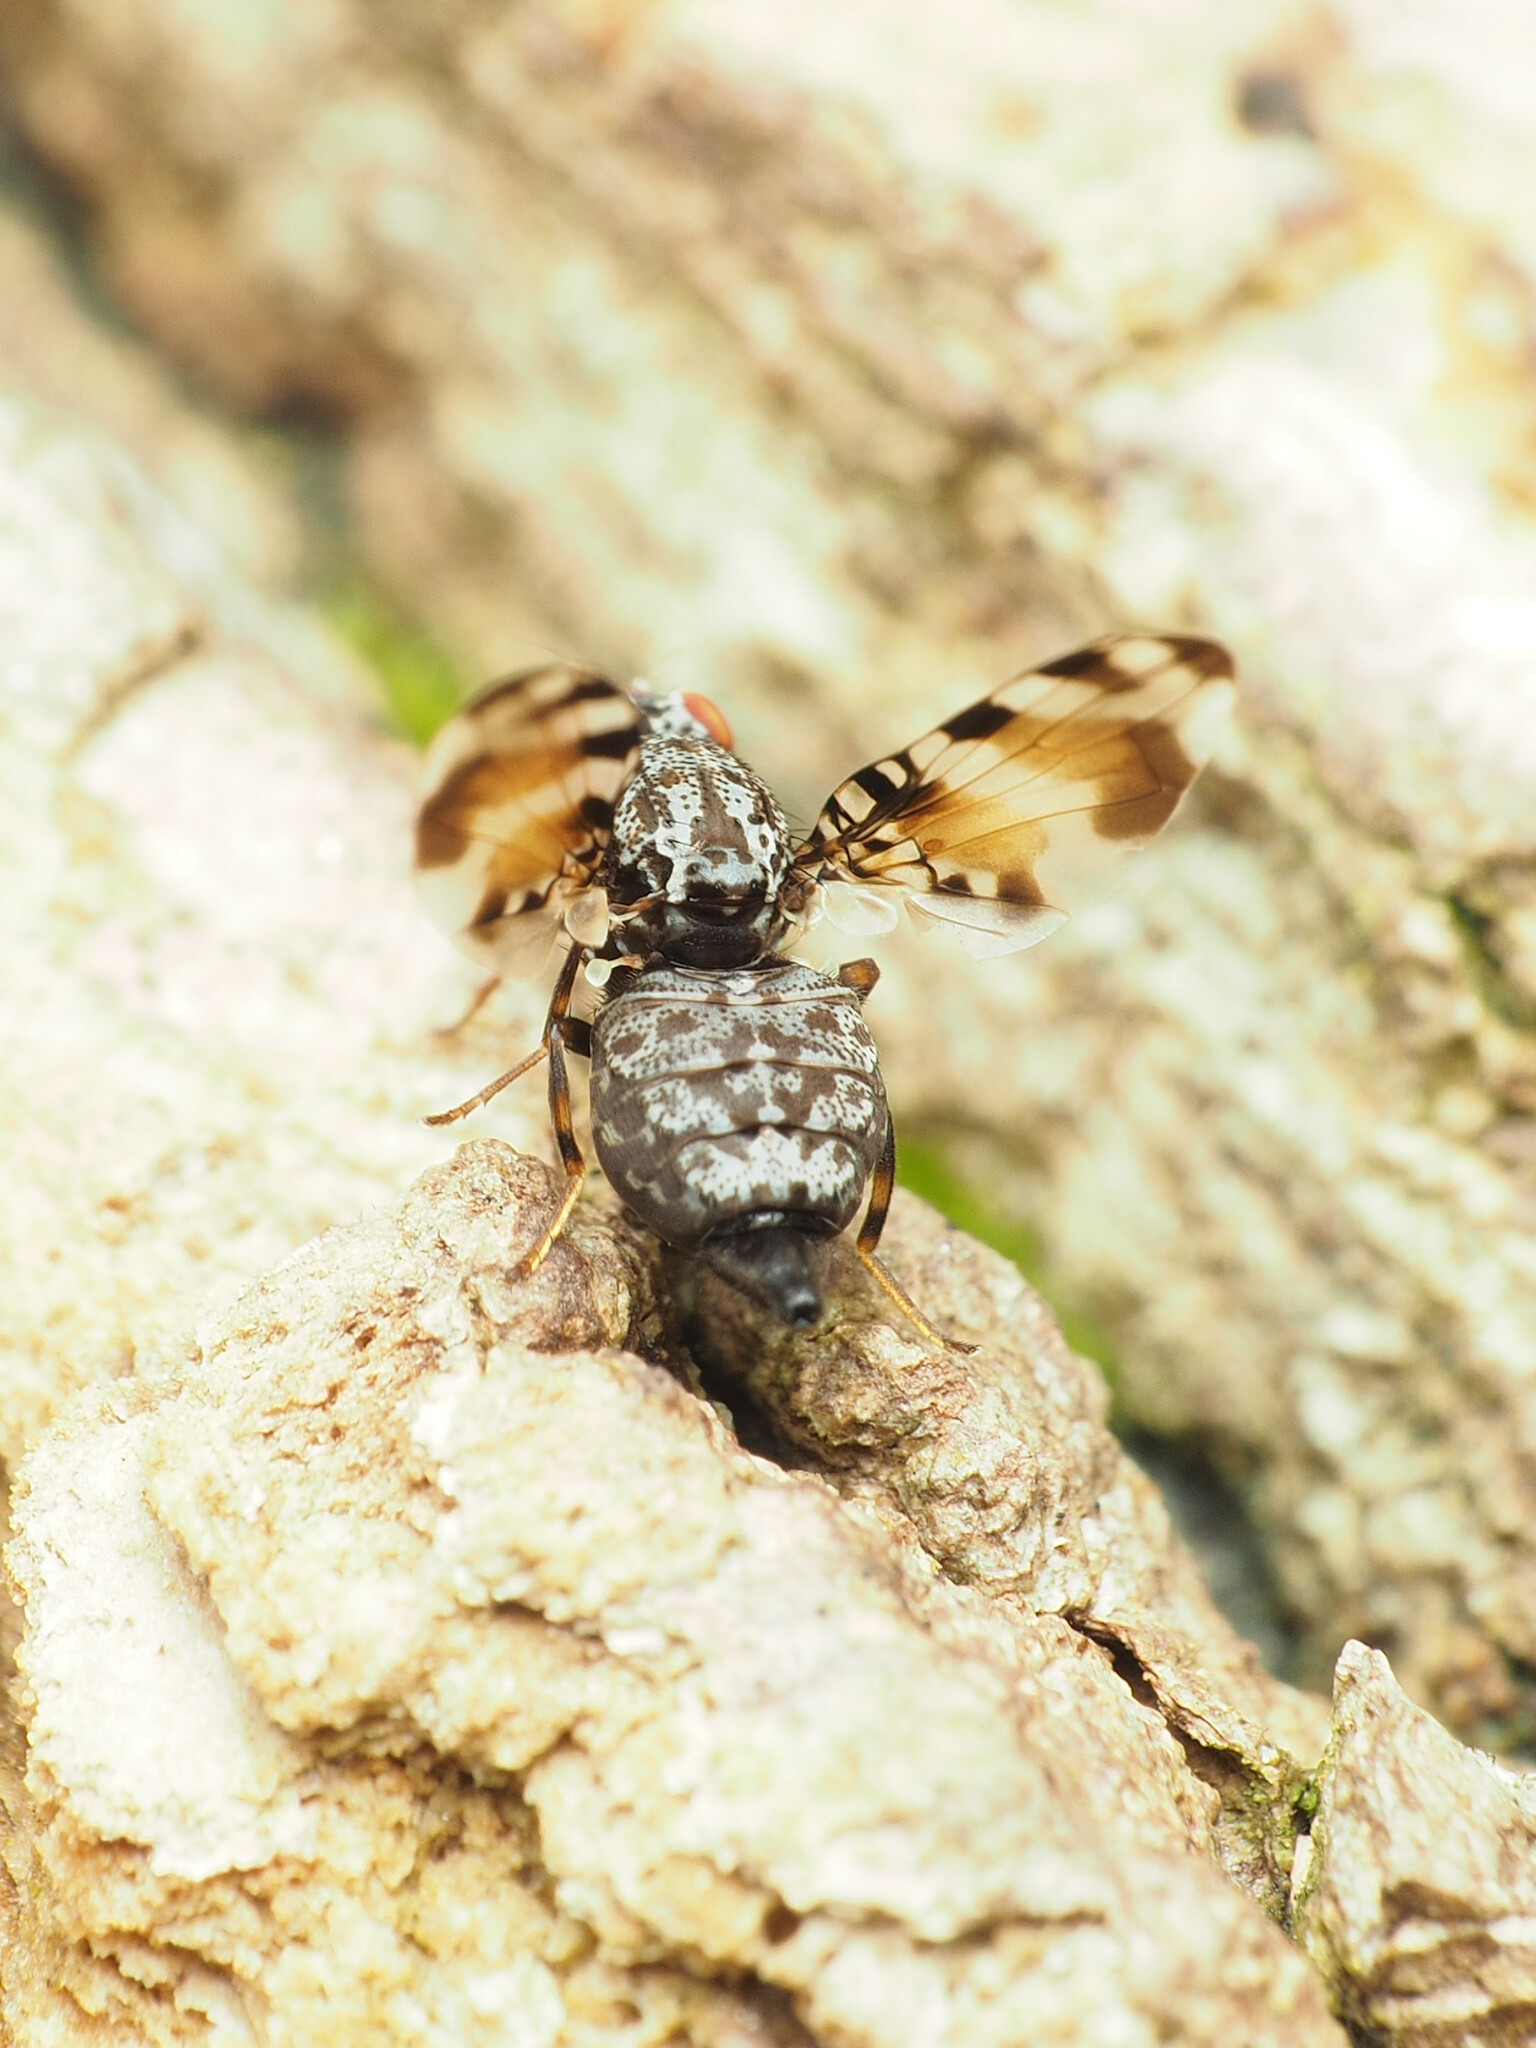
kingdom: Animalia
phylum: Arthropoda
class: Insecta
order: Diptera
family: Ulidiidae
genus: Pseudotephritis
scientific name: Pseudotephritis vau
